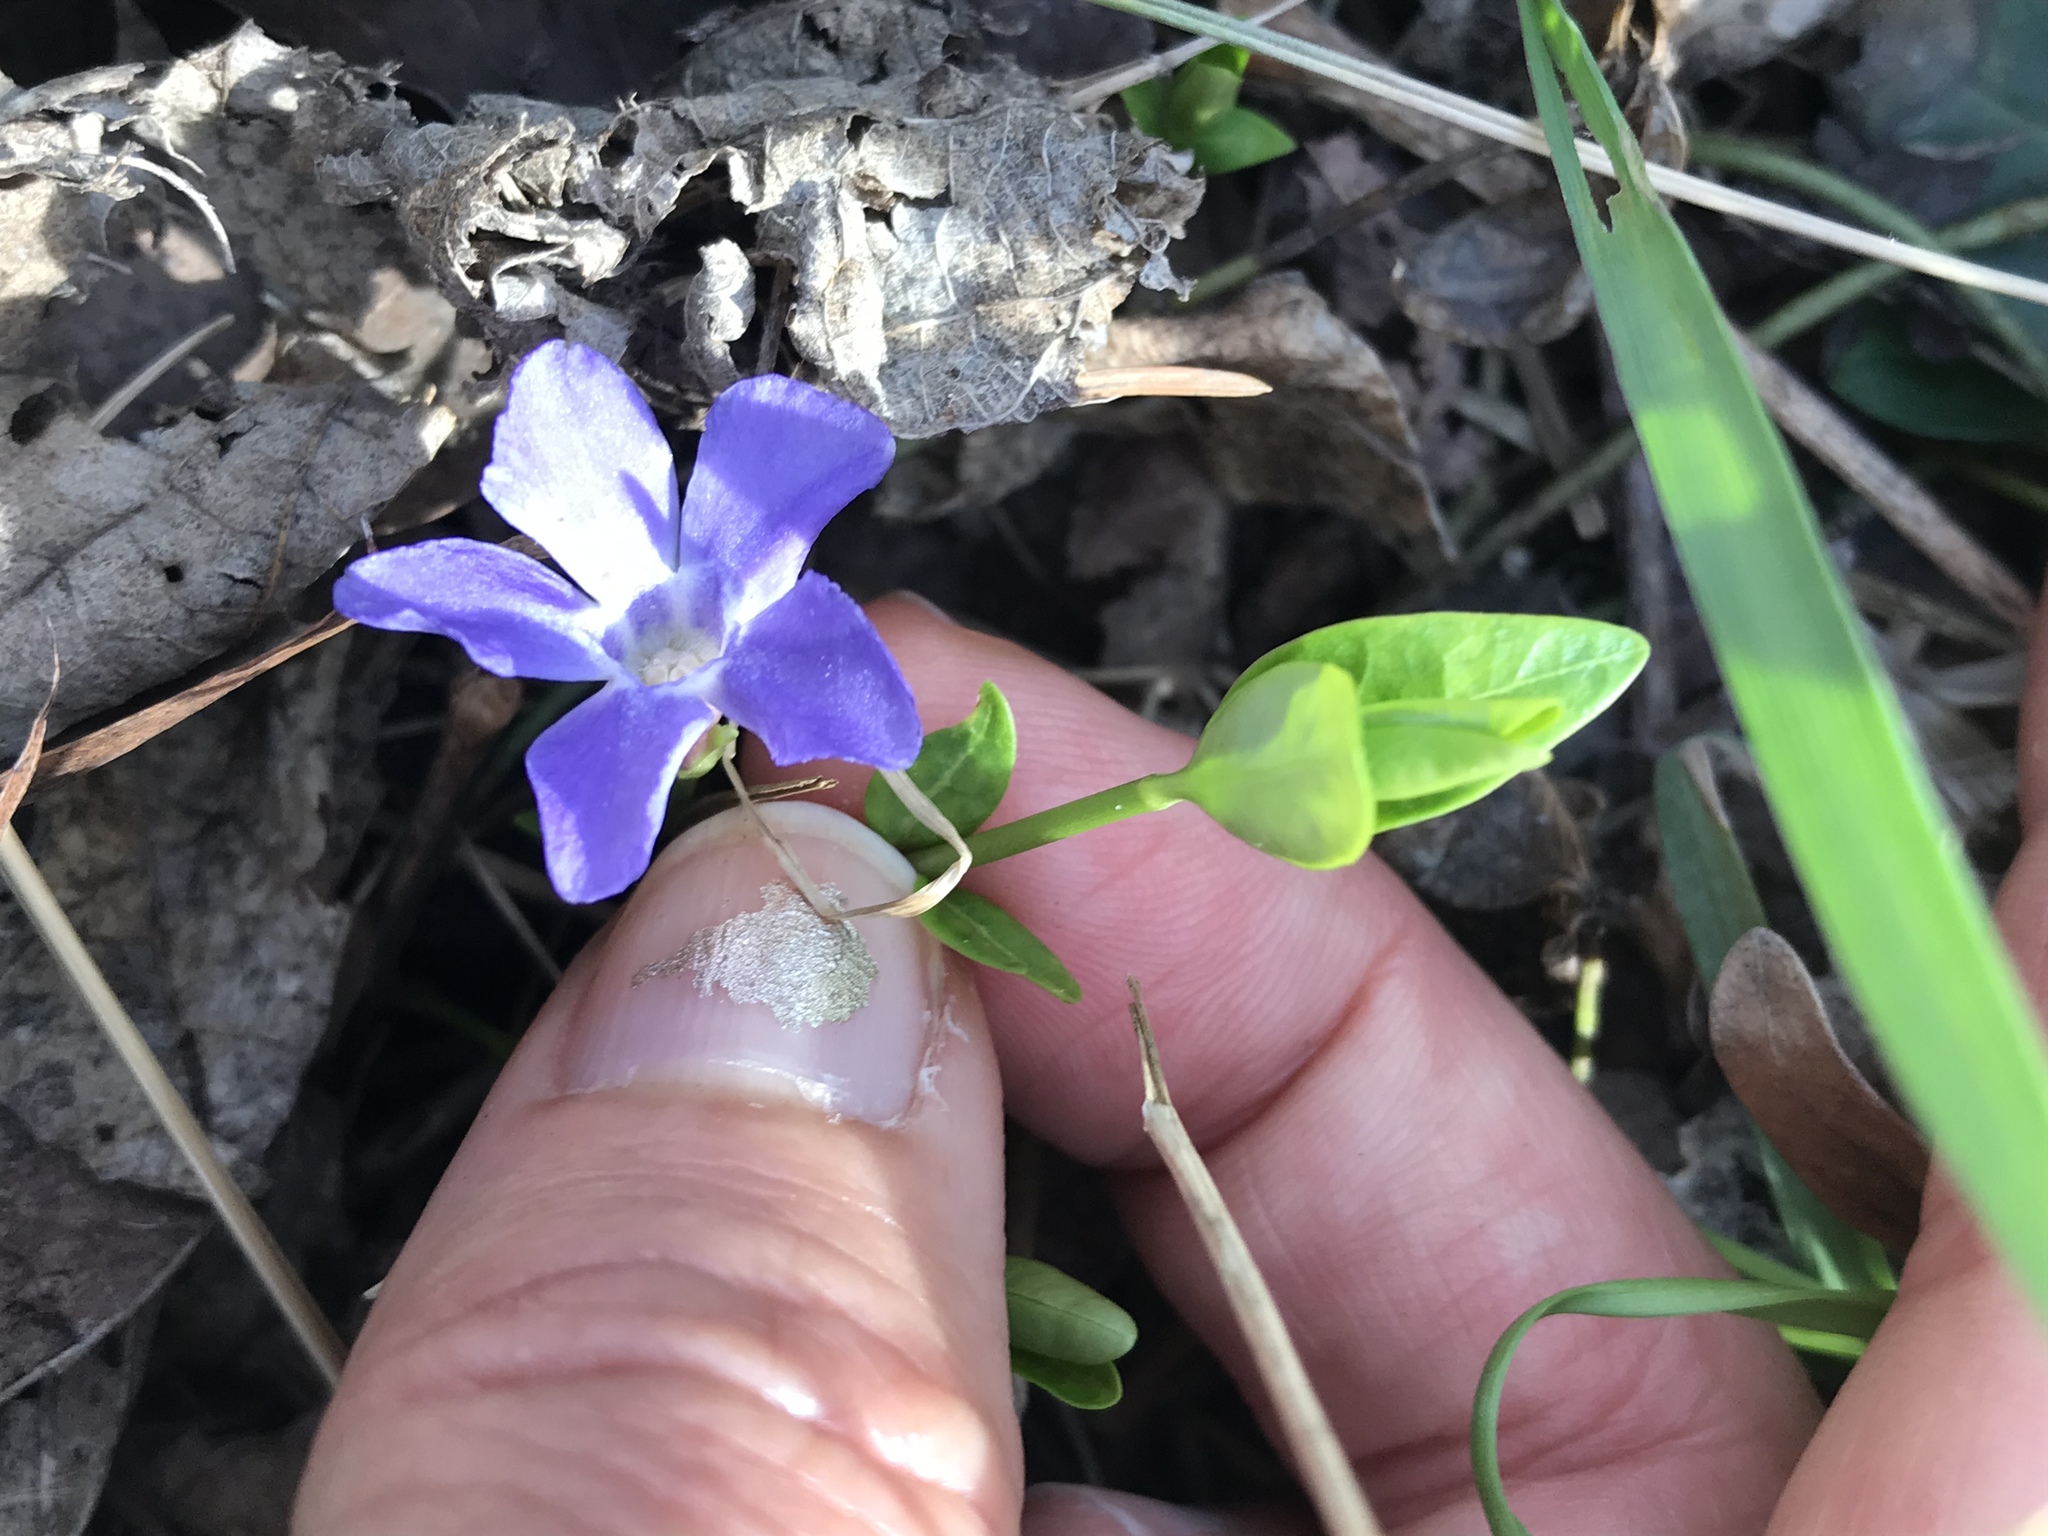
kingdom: Plantae
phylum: Tracheophyta
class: Magnoliopsida
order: Gentianales
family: Apocynaceae
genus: Vinca
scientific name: Vinca minor
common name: Lesser periwinkle
